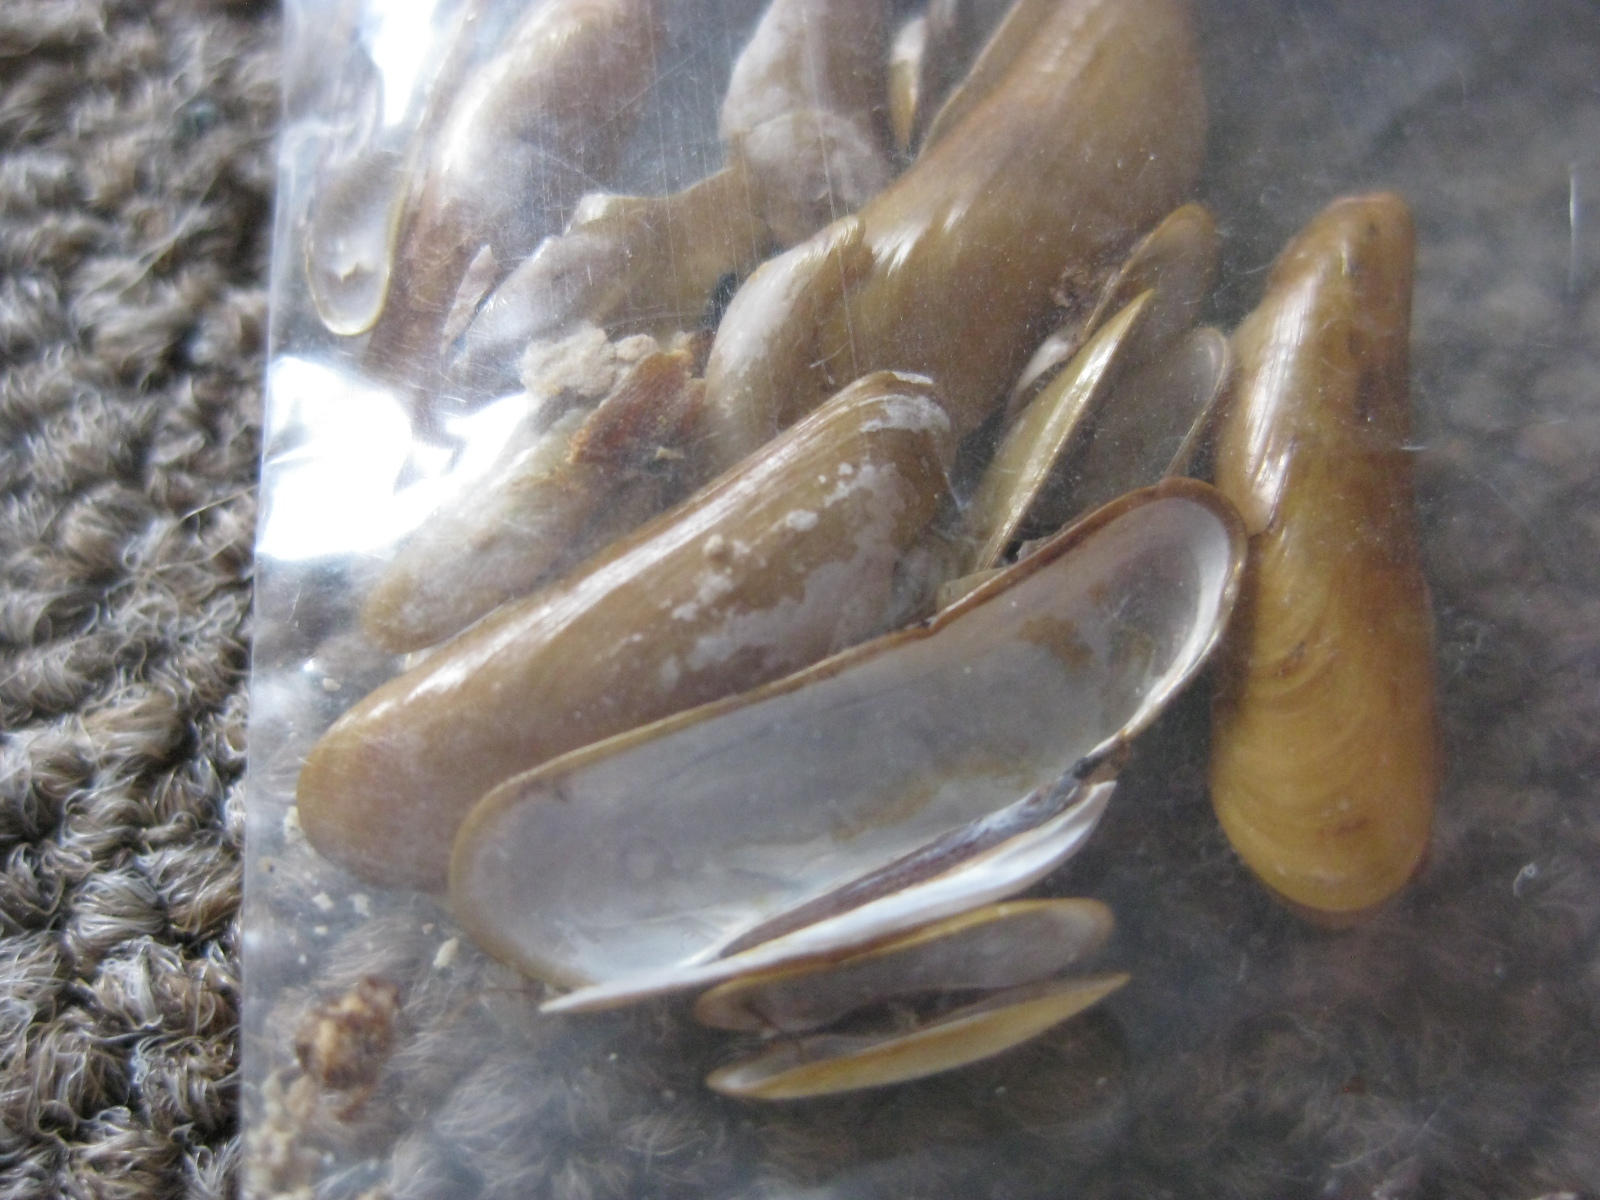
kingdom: Animalia
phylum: Mollusca
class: Bivalvia
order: Mytilida
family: Mytilidae
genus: Terua
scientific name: Terua arcuatilis
